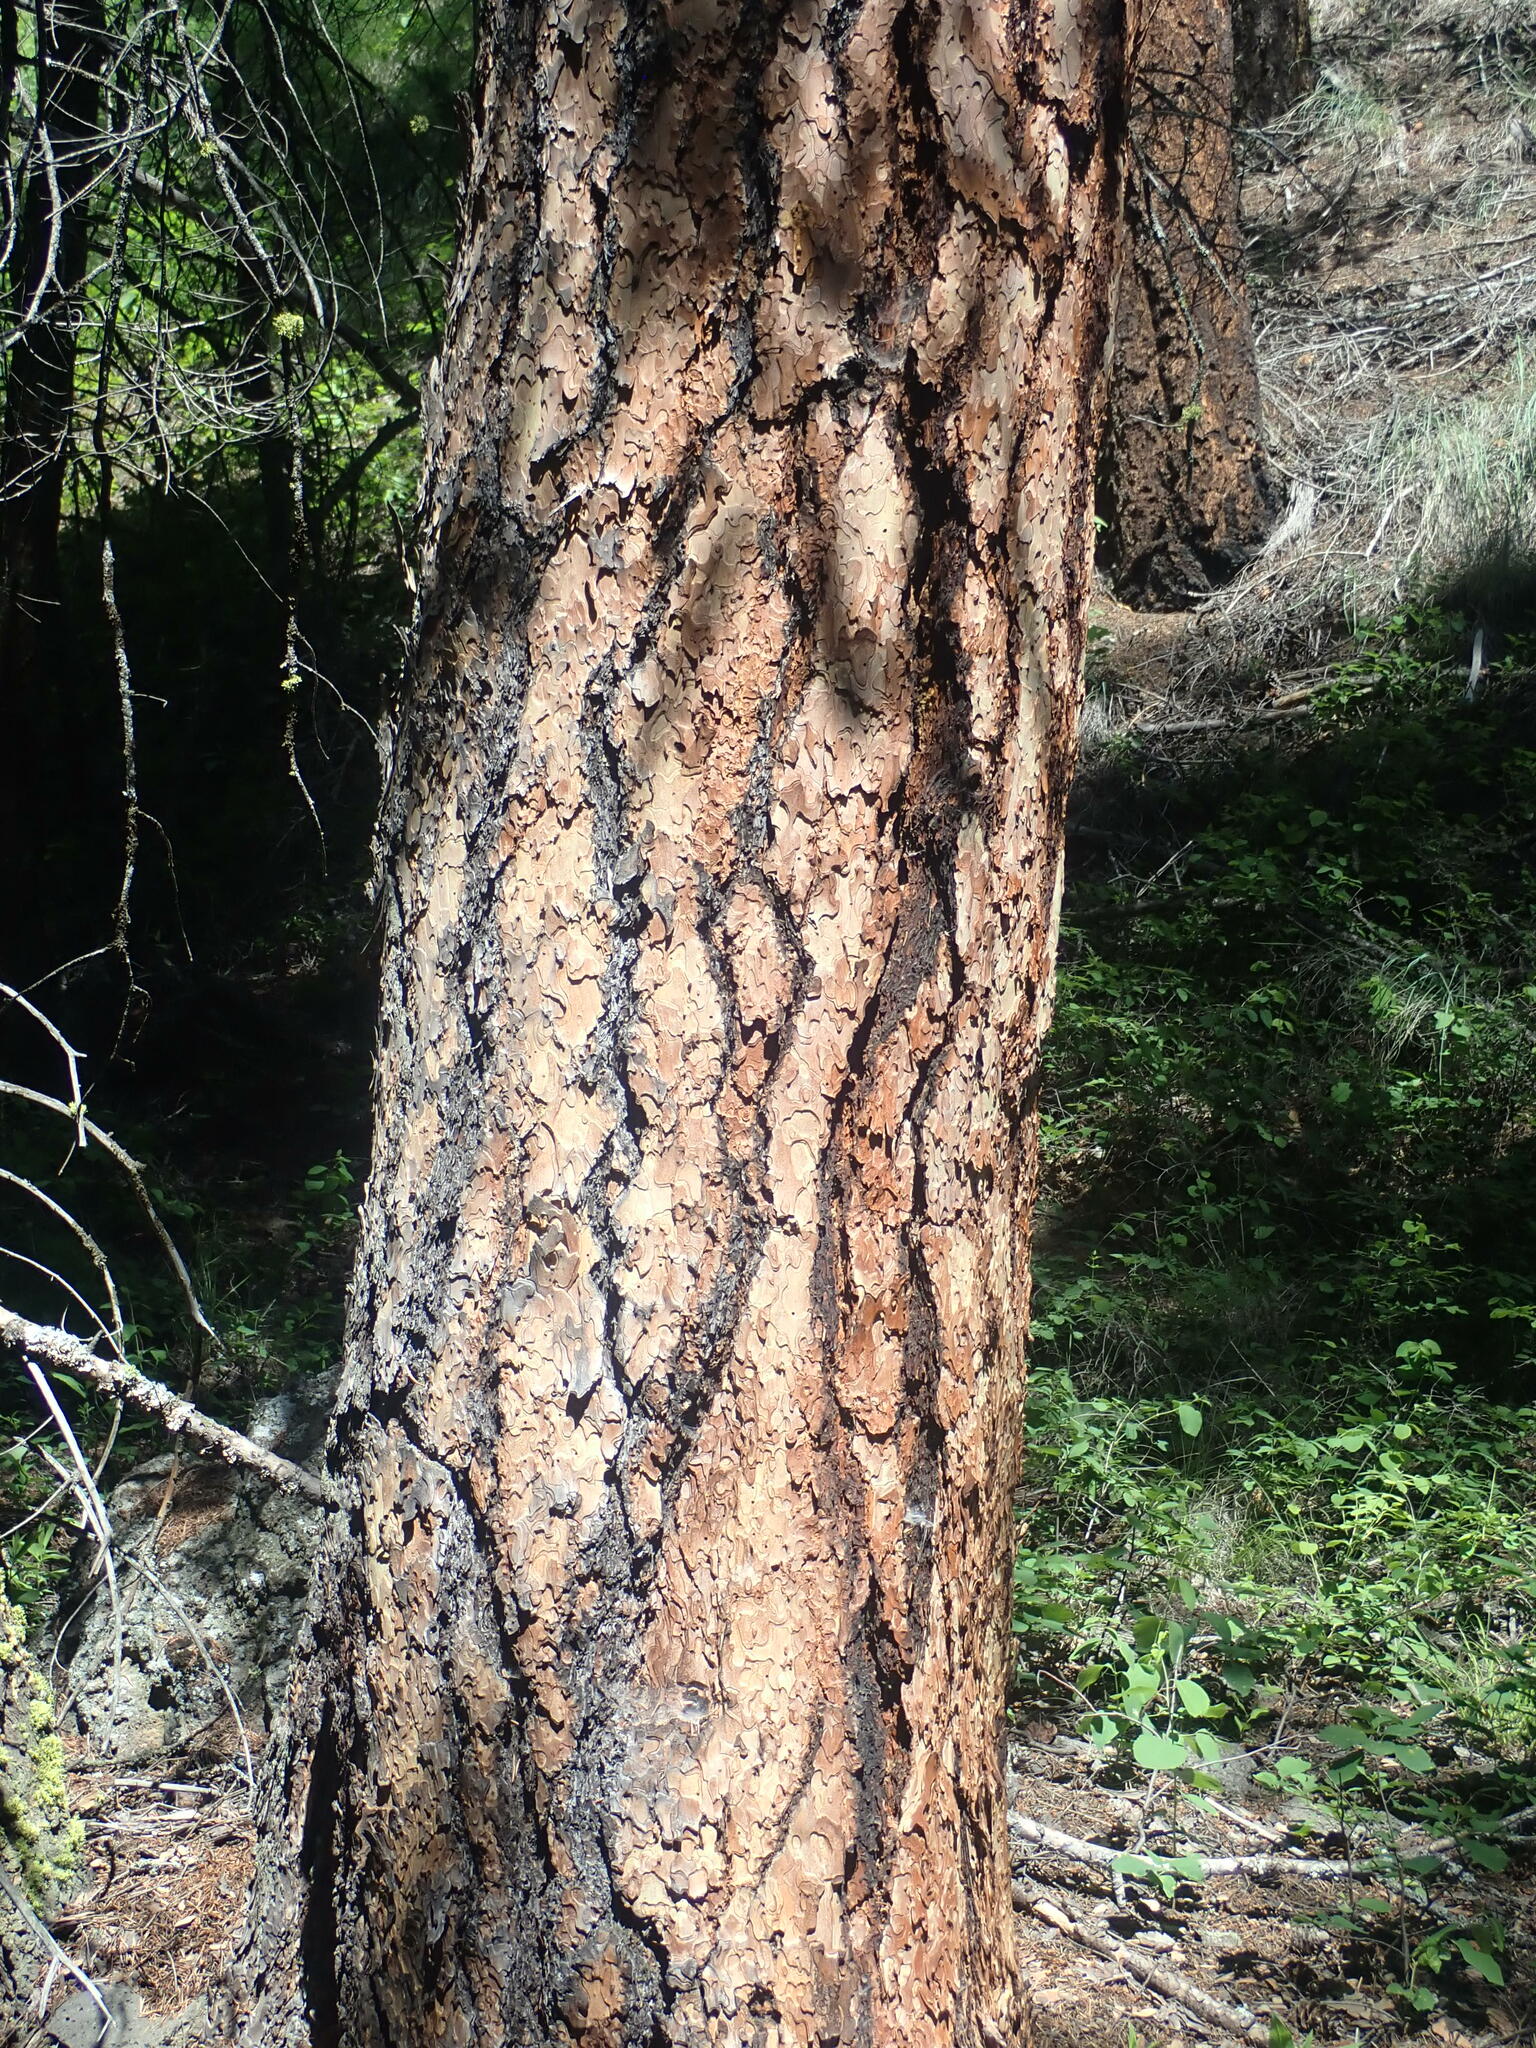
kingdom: Plantae
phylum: Tracheophyta
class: Pinopsida
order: Pinales
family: Pinaceae
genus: Pinus
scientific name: Pinus ponderosa
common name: Western yellow-pine
